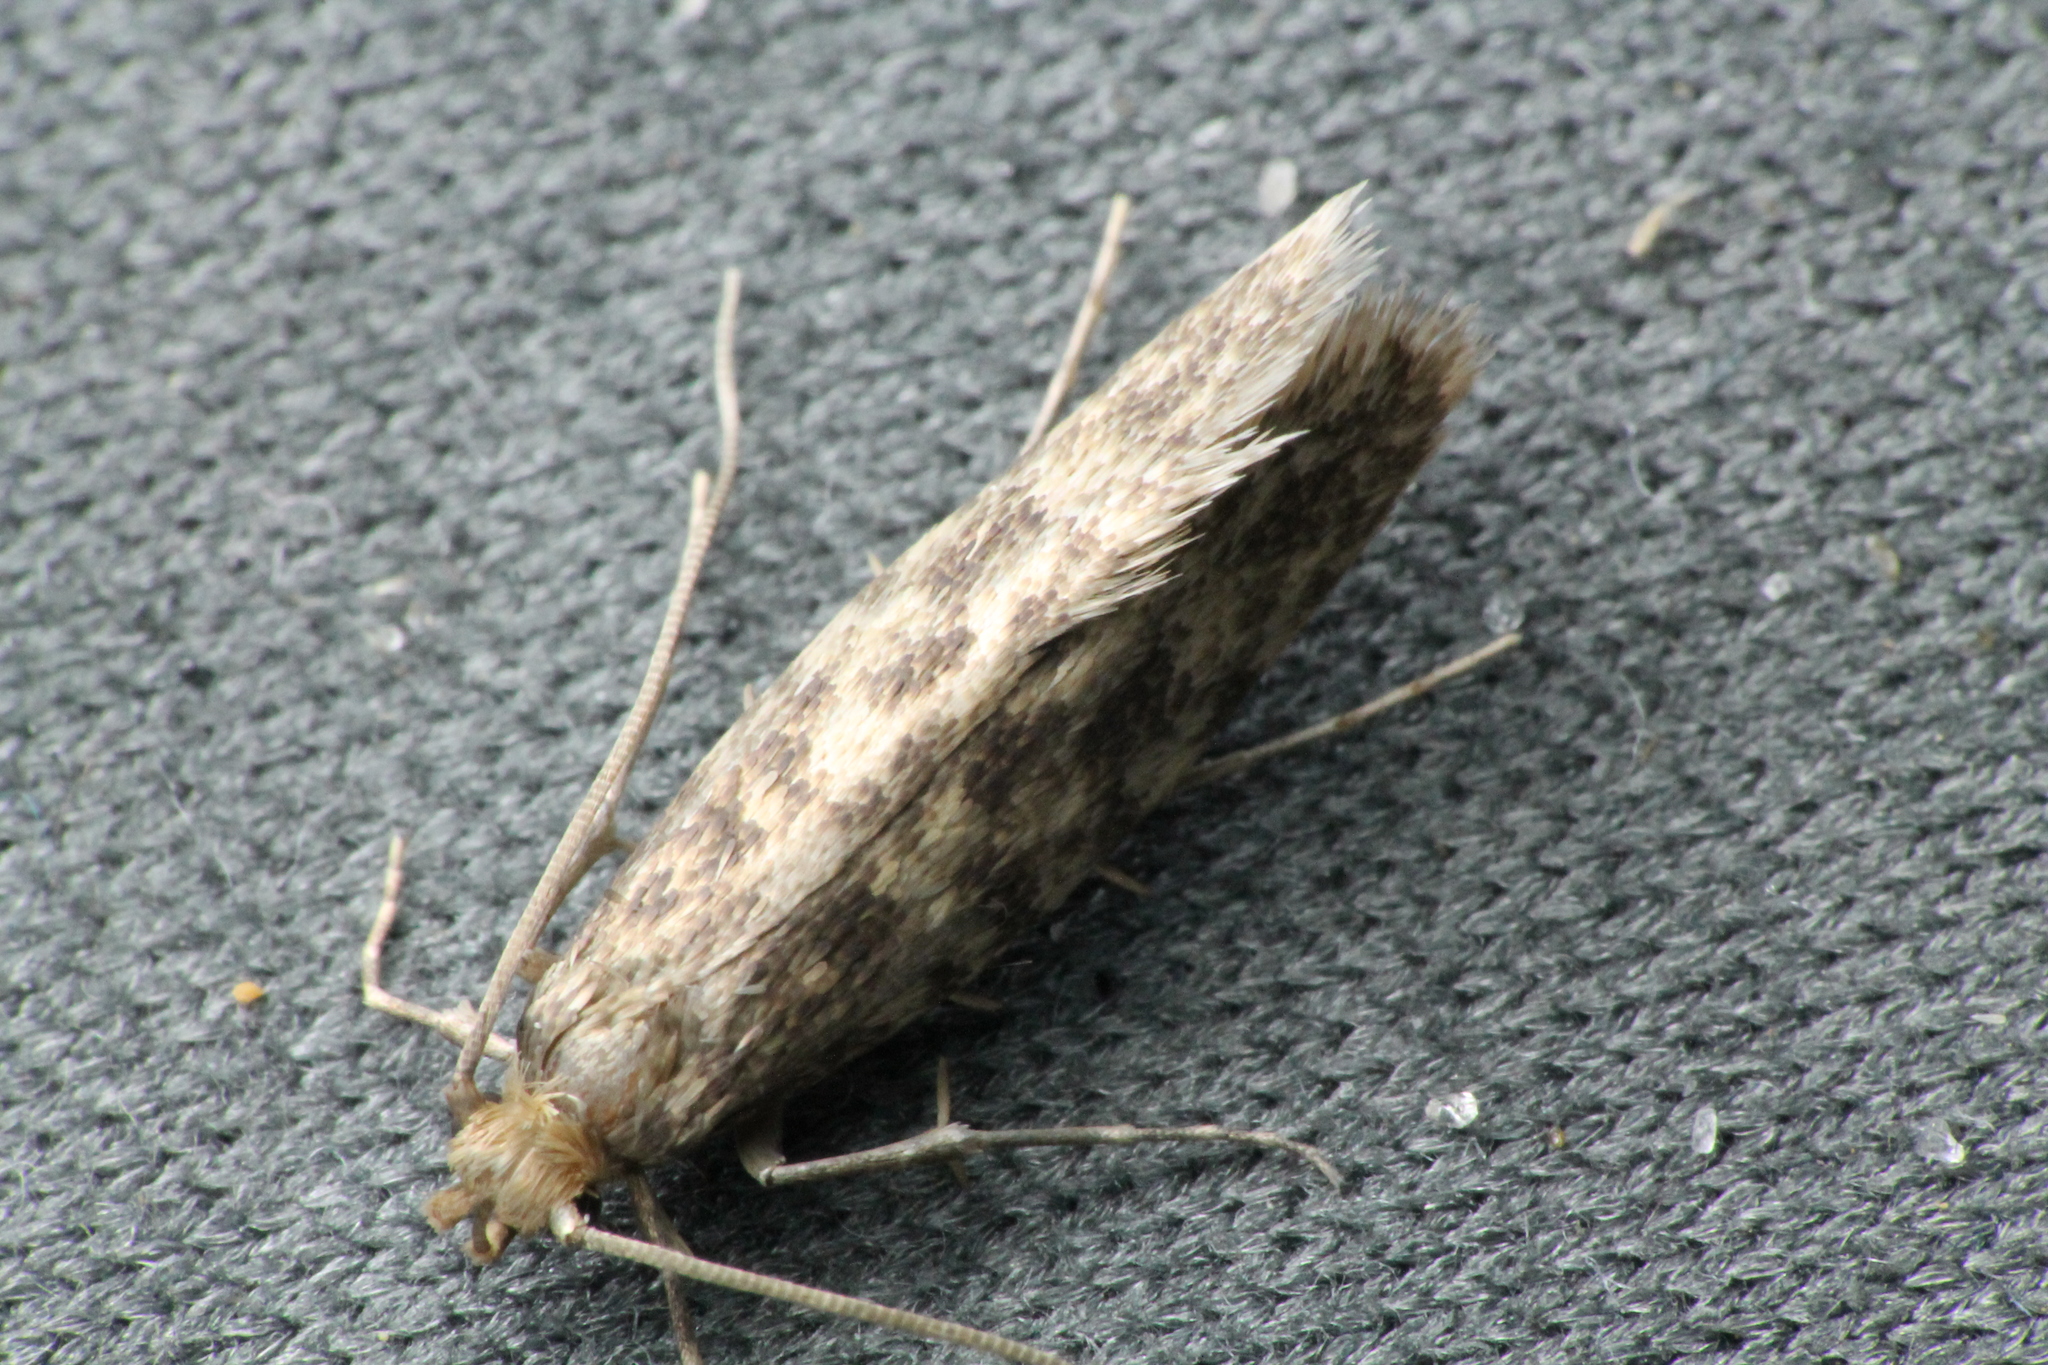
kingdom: Animalia
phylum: Arthropoda
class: Insecta
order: Lepidoptera
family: Tineidae
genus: Lindera
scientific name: Lindera tessellatella
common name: Moth
